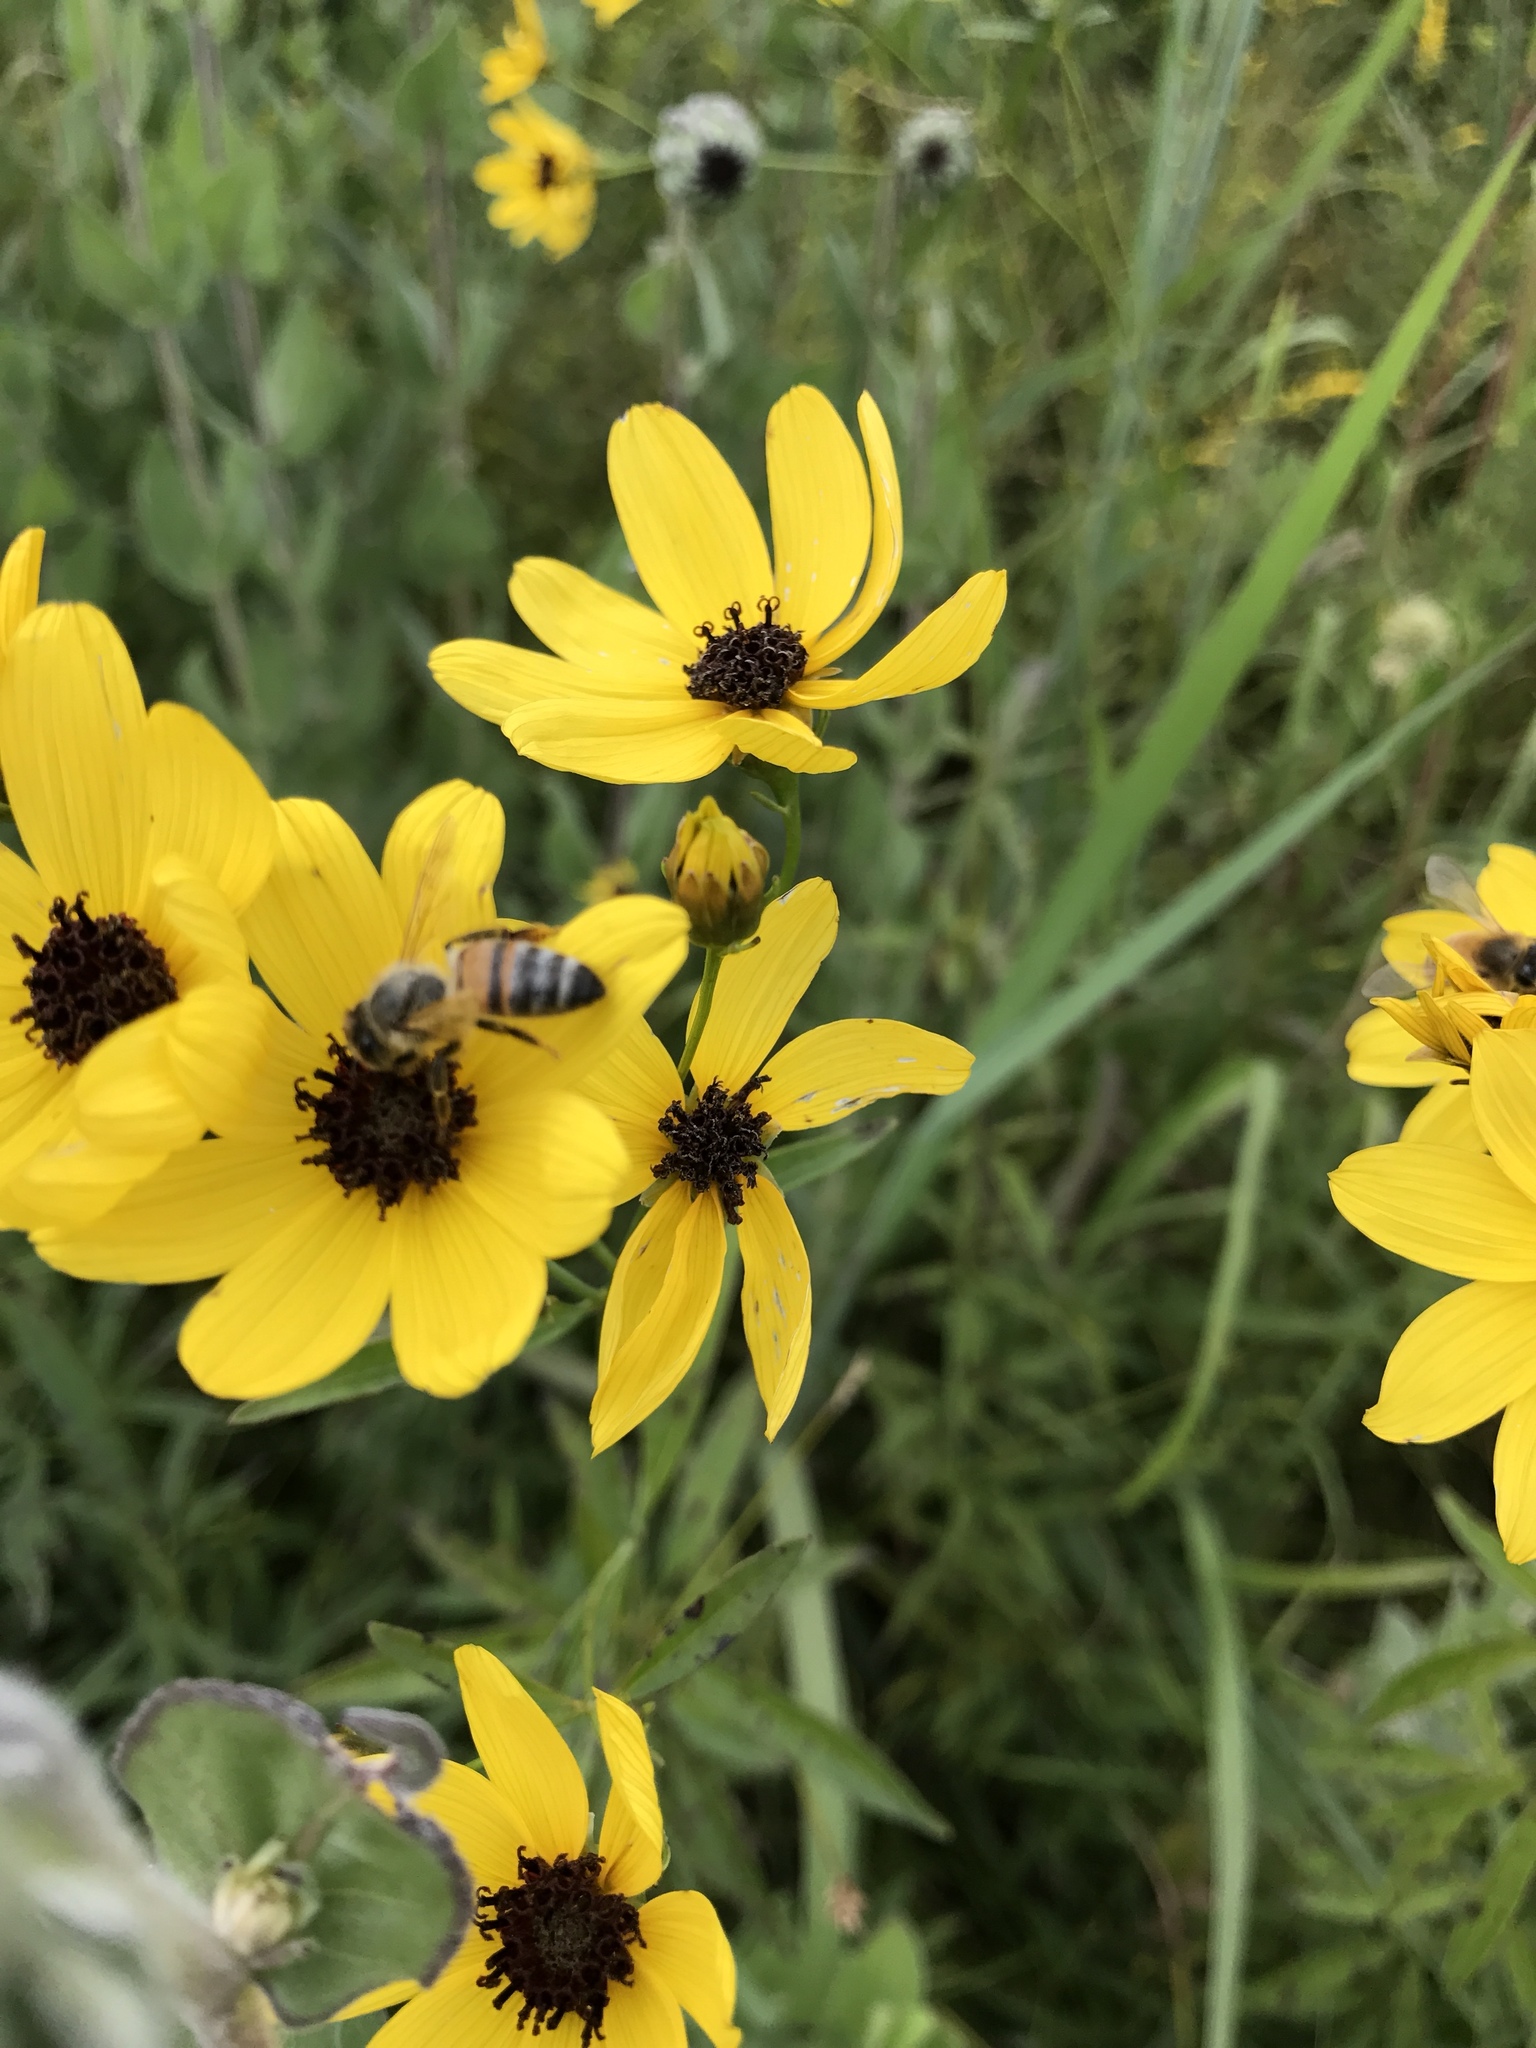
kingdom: Animalia
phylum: Arthropoda
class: Insecta
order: Hymenoptera
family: Apidae
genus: Apis
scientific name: Apis mellifera
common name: Honey bee
